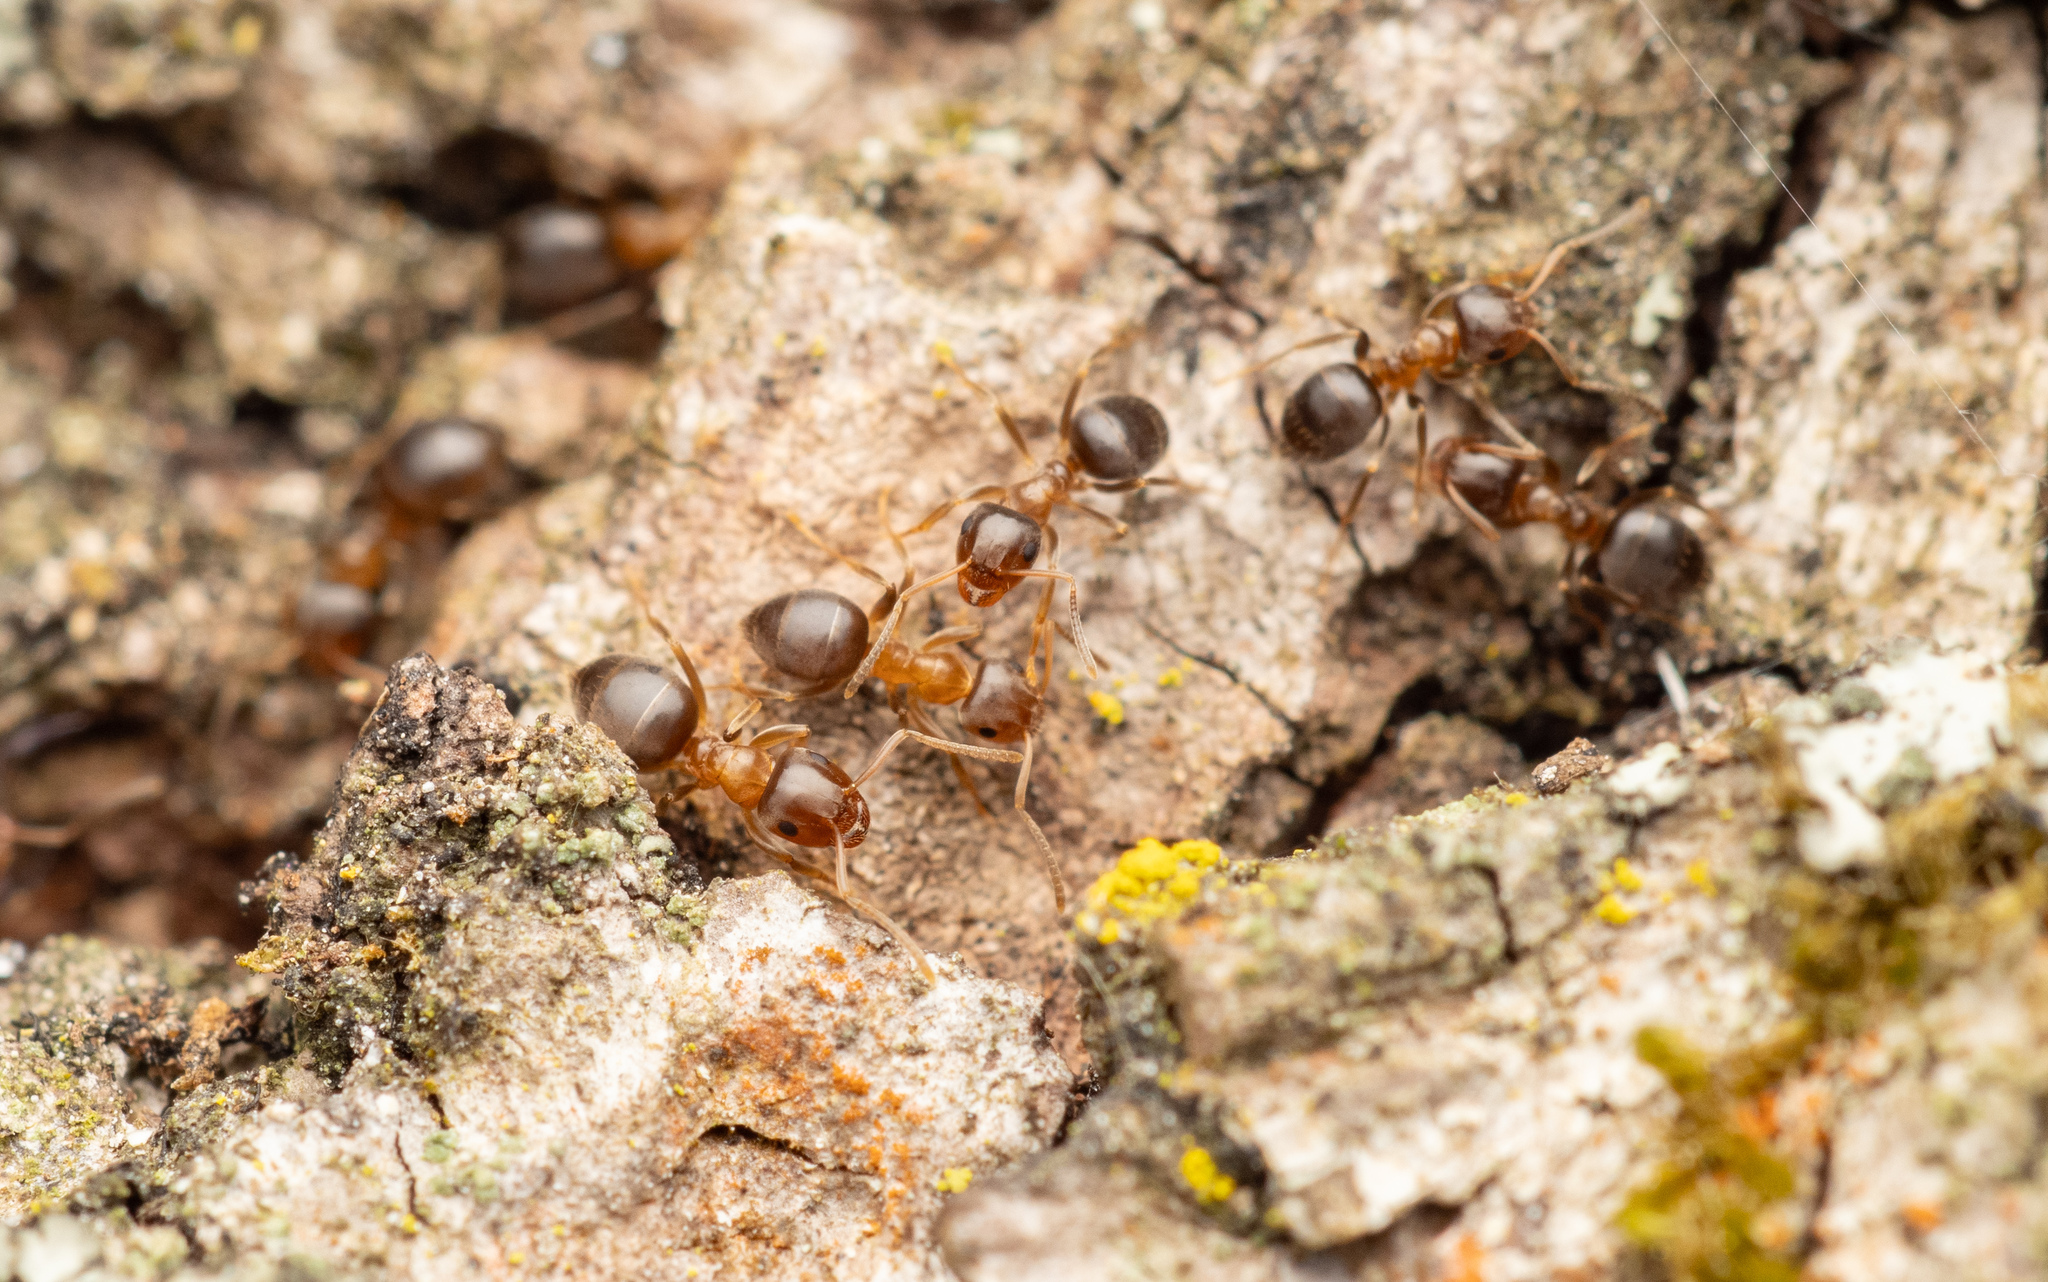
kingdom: Animalia
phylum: Arthropoda
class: Insecta
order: Hymenoptera
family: Formicidae
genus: Lasius
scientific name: Lasius brunneus
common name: Brown ant
